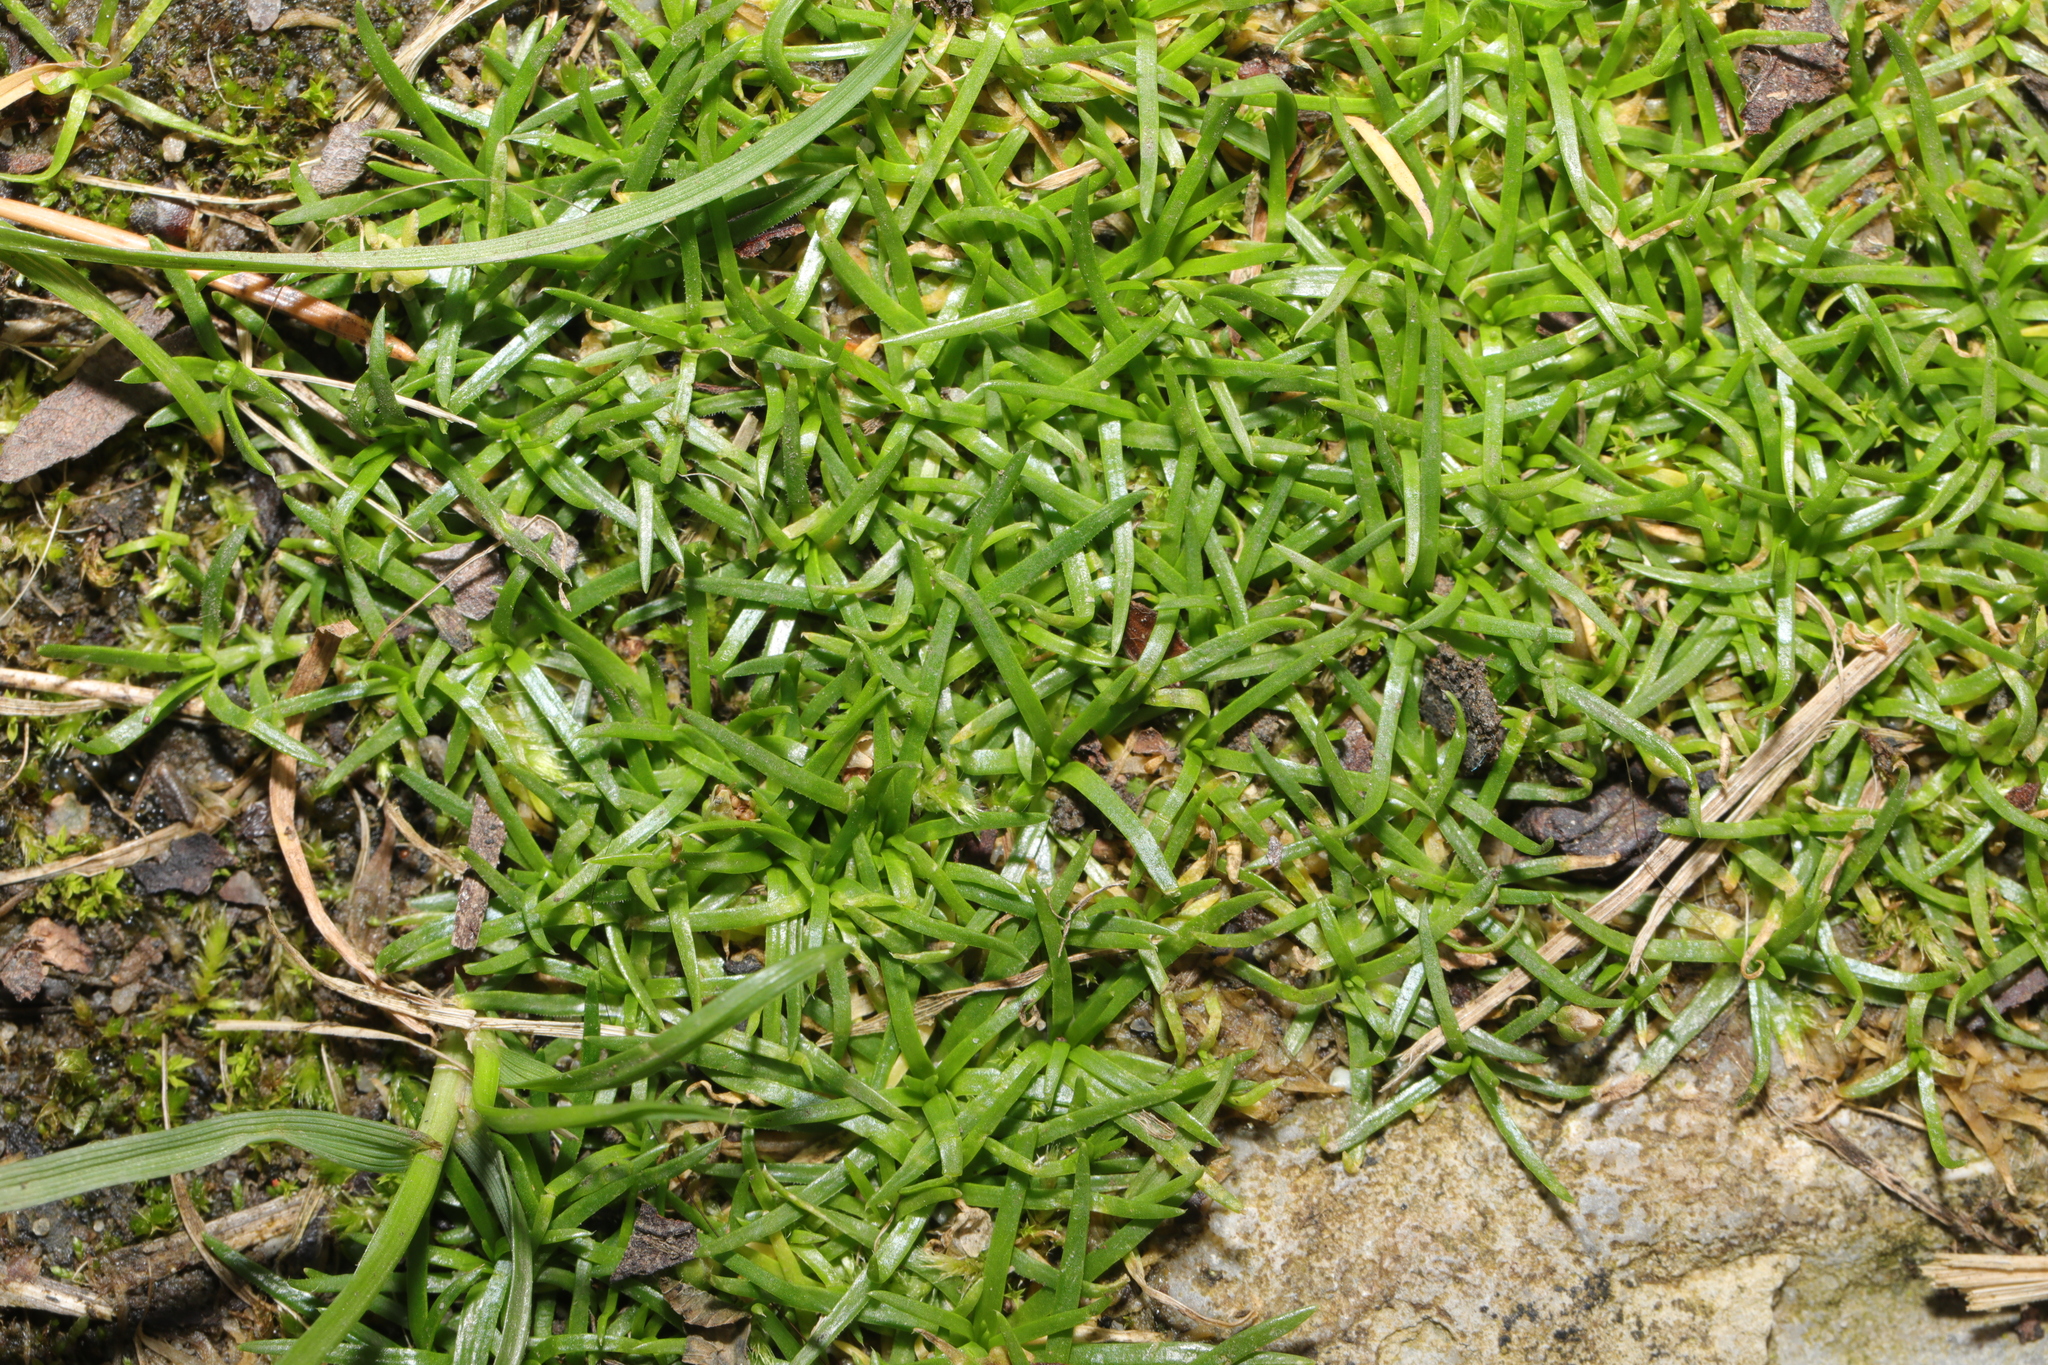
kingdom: Plantae
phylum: Tracheophyta
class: Magnoliopsida
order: Caryophyllales
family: Caryophyllaceae
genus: Sagina
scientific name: Sagina procumbens
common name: Procumbent pearlwort
